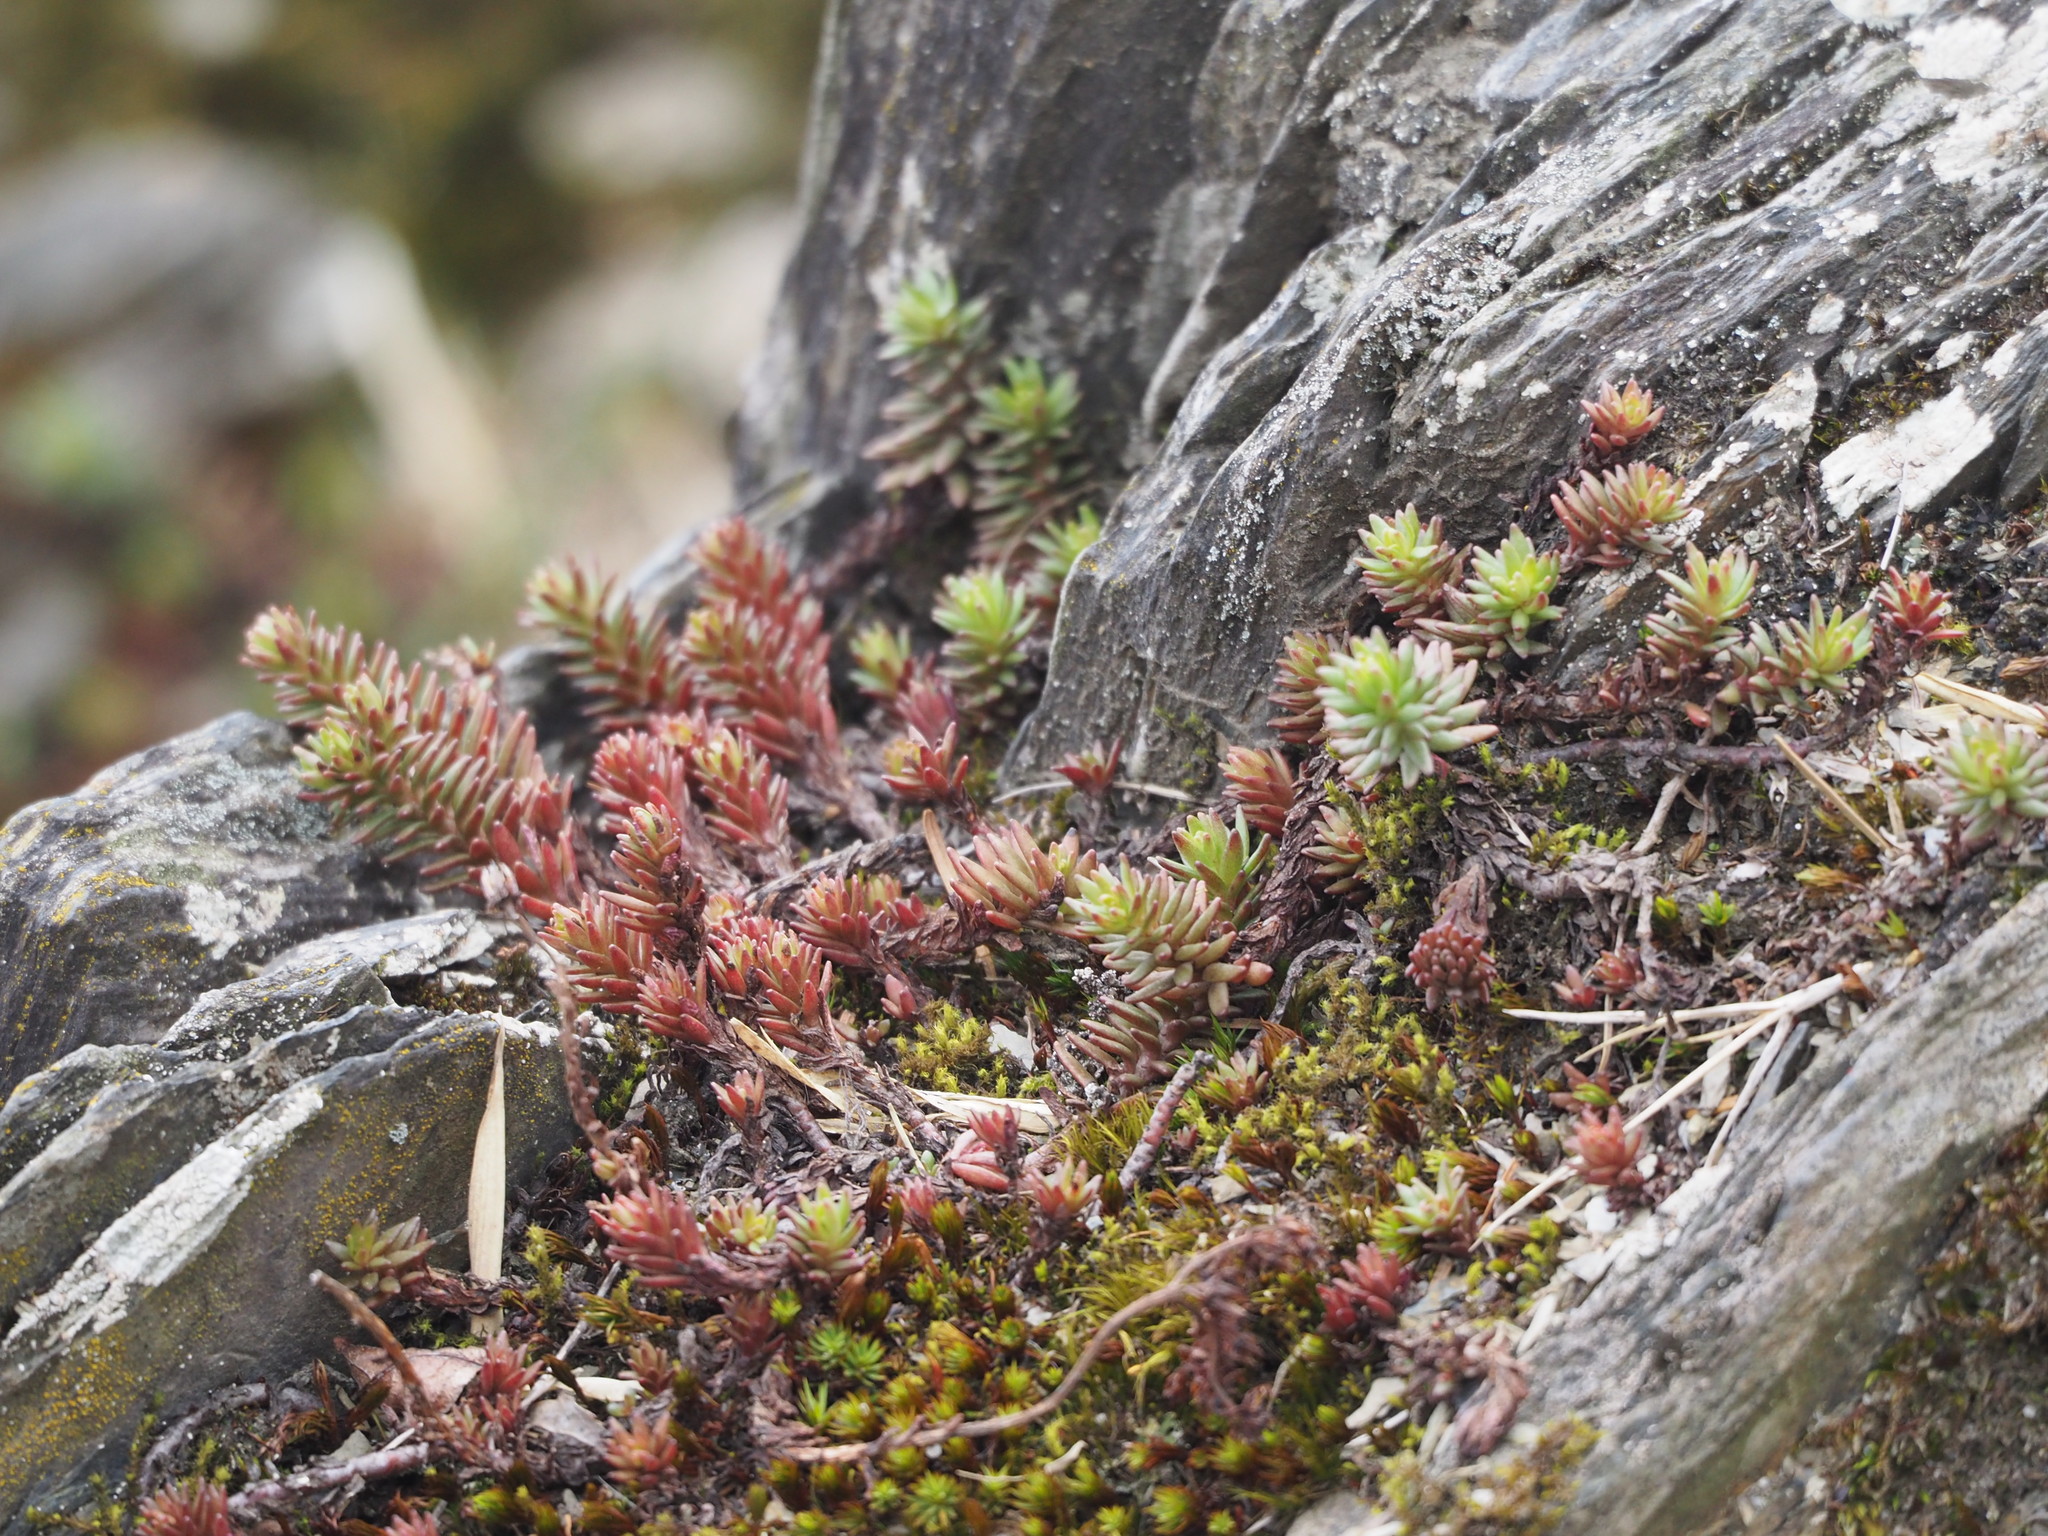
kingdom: Plantae
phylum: Tracheophyta
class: Magnoliopsida
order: Saxifragales
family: Crassulaceae
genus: Sedum
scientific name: Sedum morrisonense
